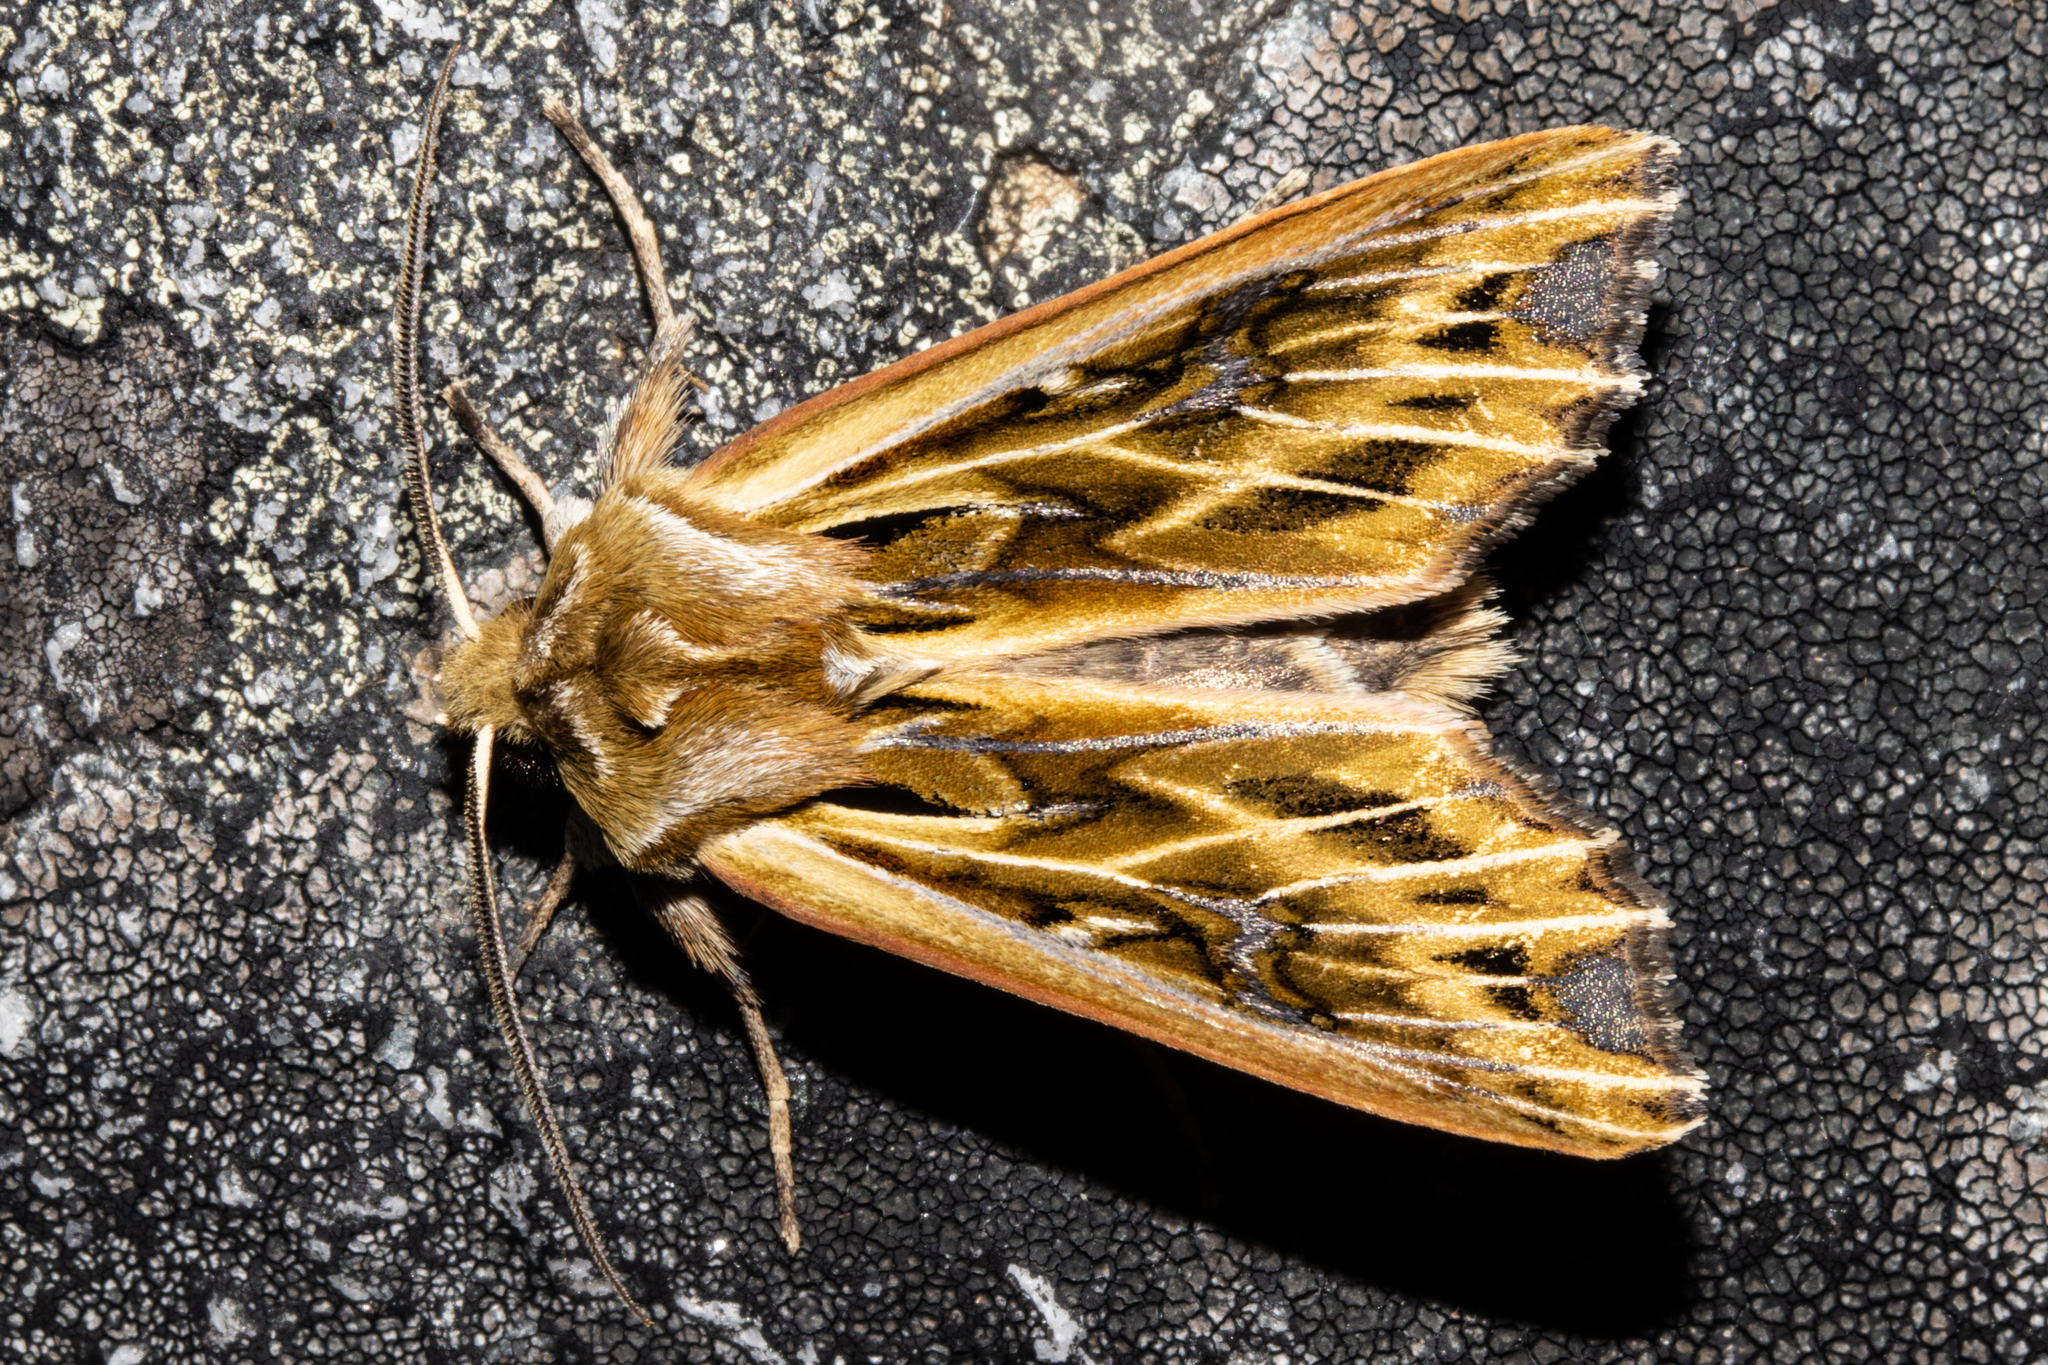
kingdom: Animalia
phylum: Arthropoda
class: Insecta
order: Lepidoptera
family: Noctuidae
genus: Ichneutica
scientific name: Ichneutica
